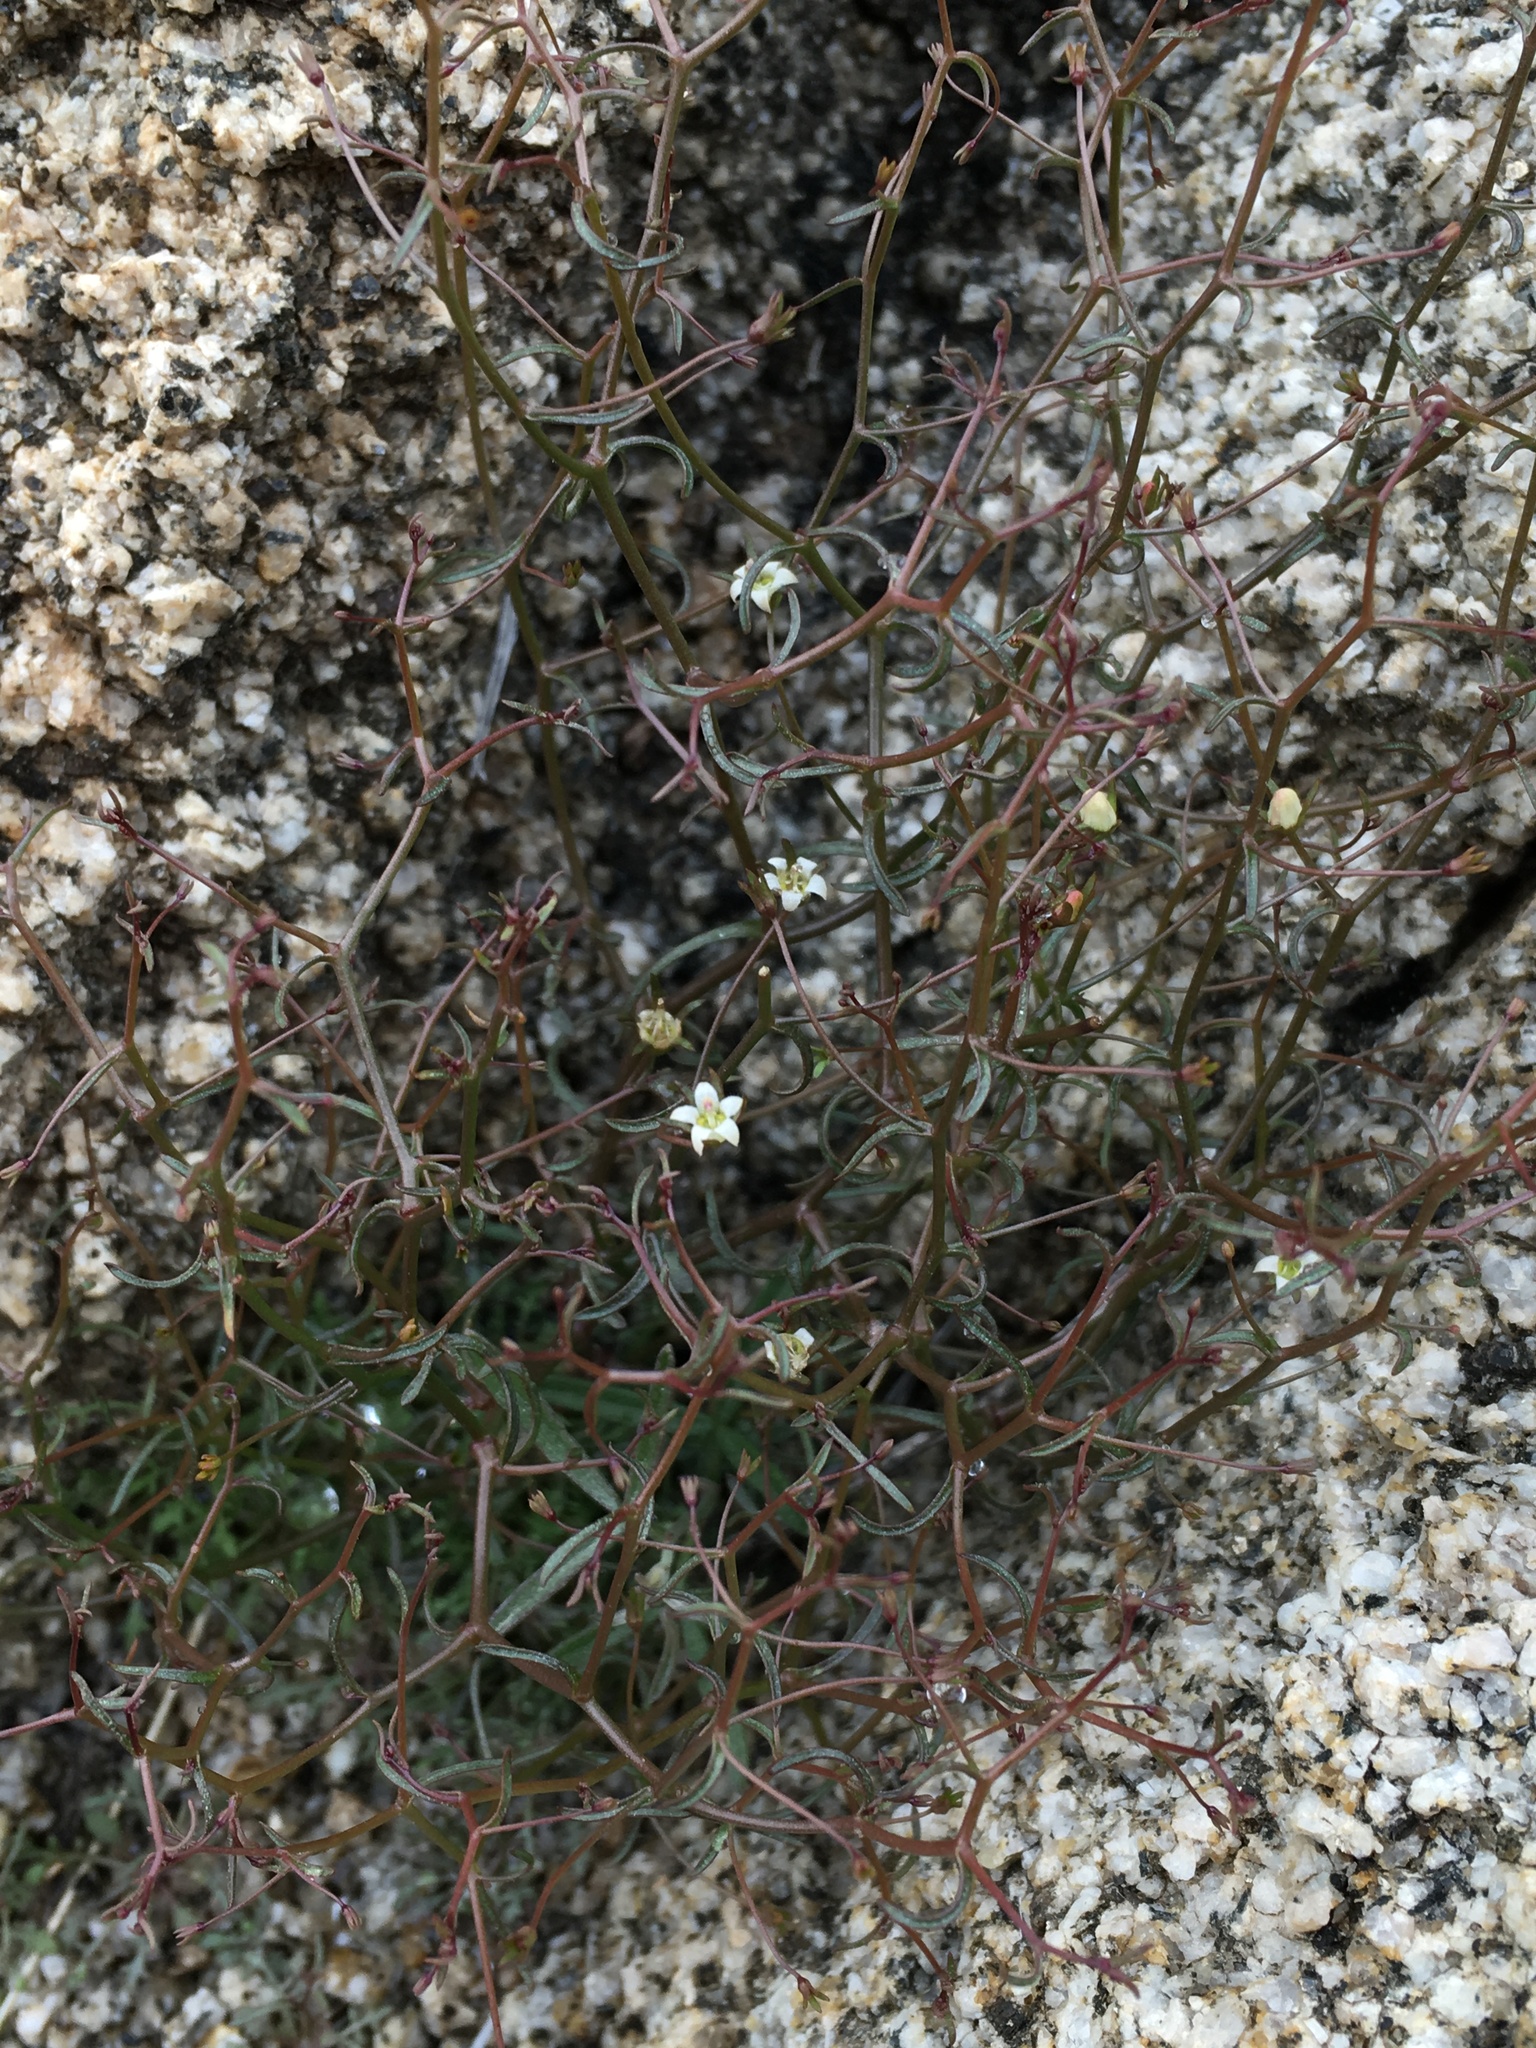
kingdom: Plantae
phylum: Tracheophyta
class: Magnoliopsida
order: Asterales
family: Campanulaceae
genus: Nemacladus
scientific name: Nemacladus glanduliferus
